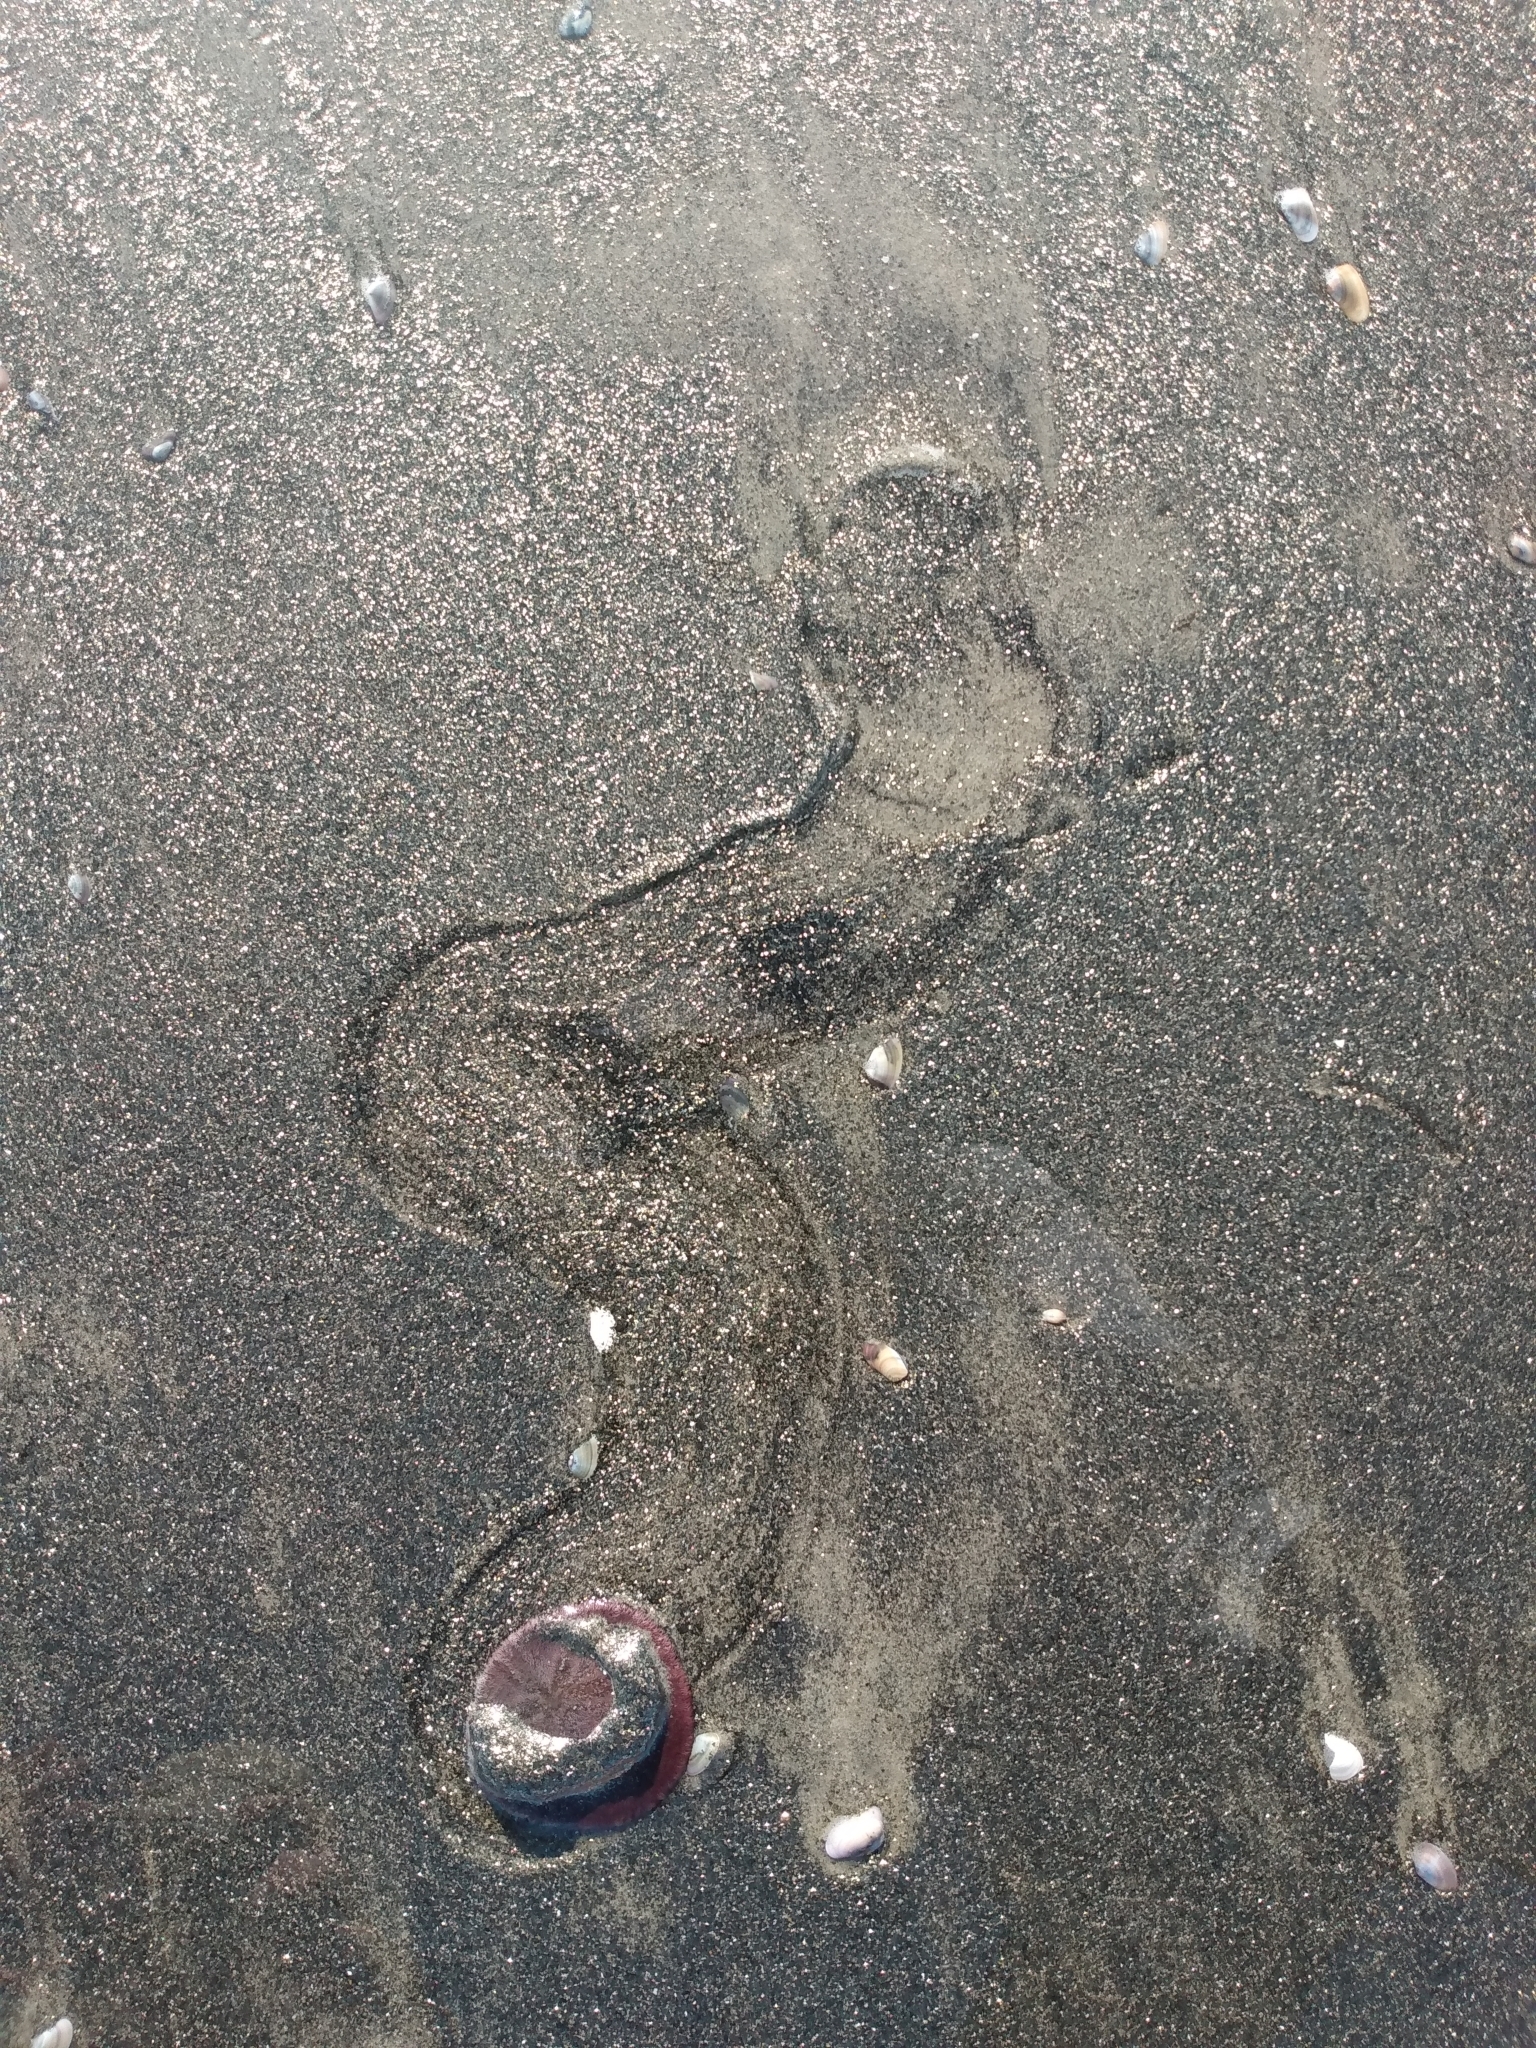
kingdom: Animalia
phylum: Echinodermata
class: Echinoidea
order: Echinolampadacea
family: Dendrasteridae
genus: Dendraster
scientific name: Dendraster excentricus
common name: Eccentric sand dollar sea urchin
